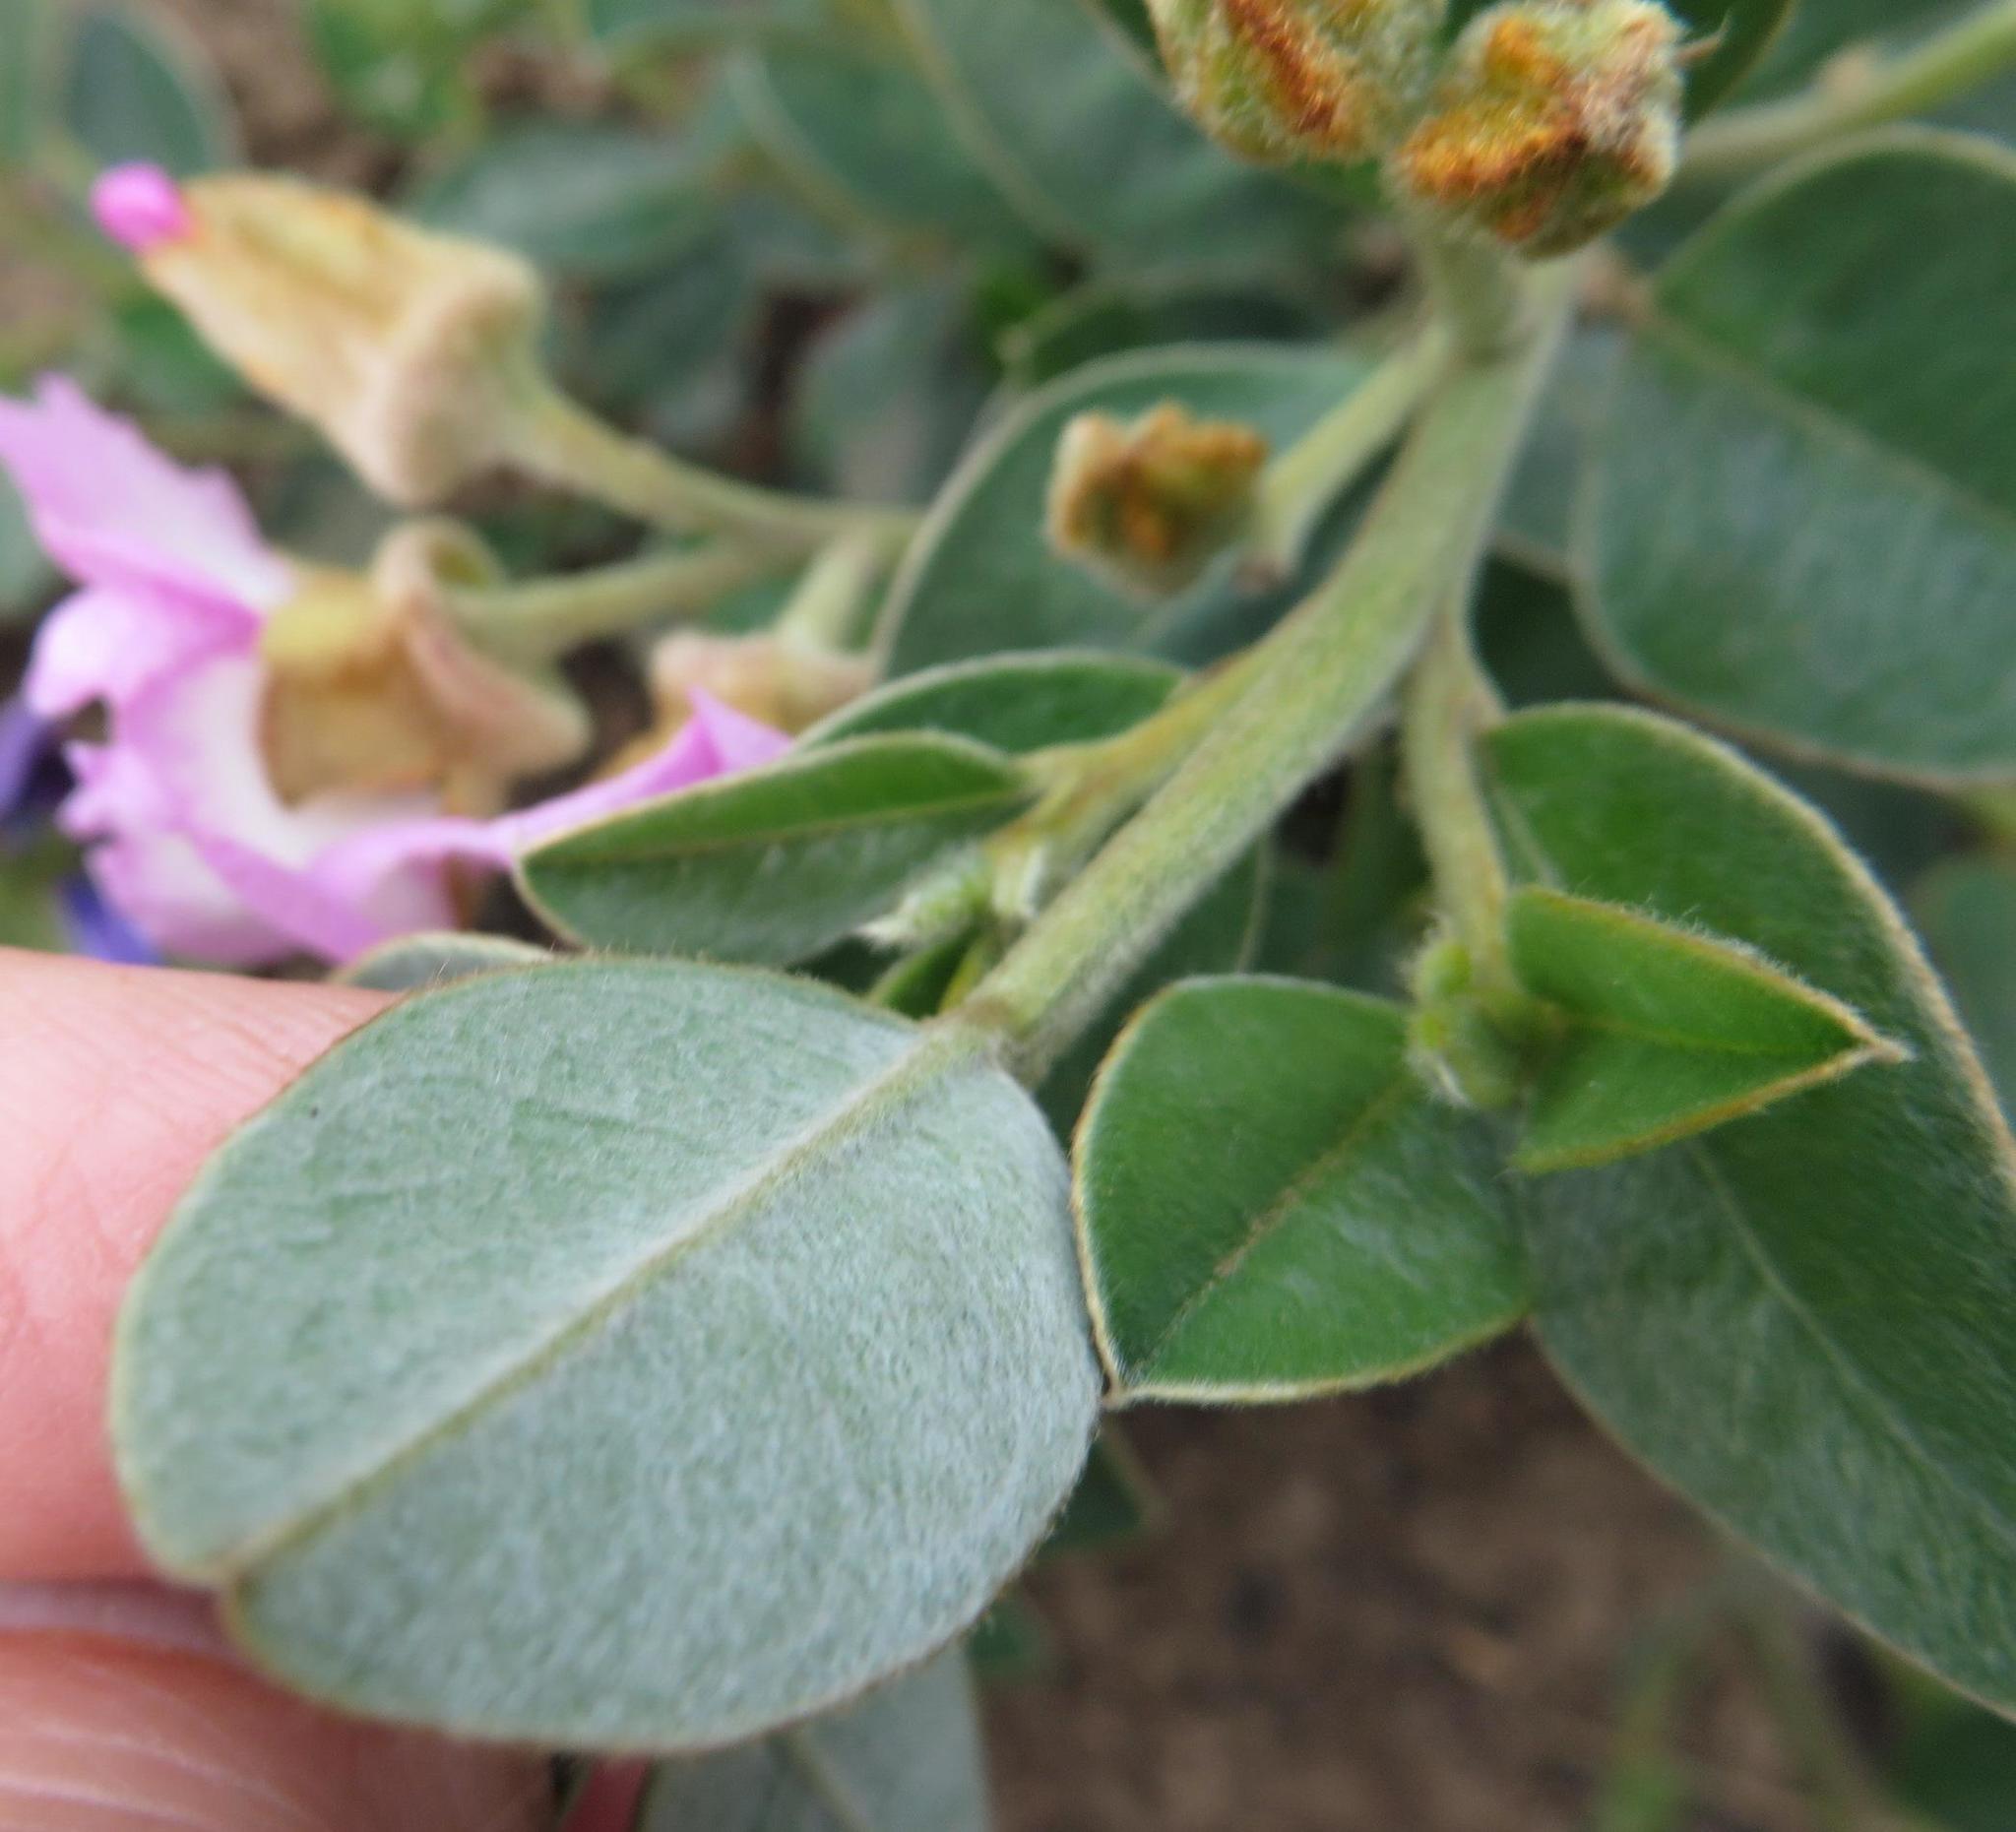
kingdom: Plantae
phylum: Tracheophyta
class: Magnoliopsida
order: Fabales
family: Fabaceae
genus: Podalyria
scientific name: Podalyria variabilis
